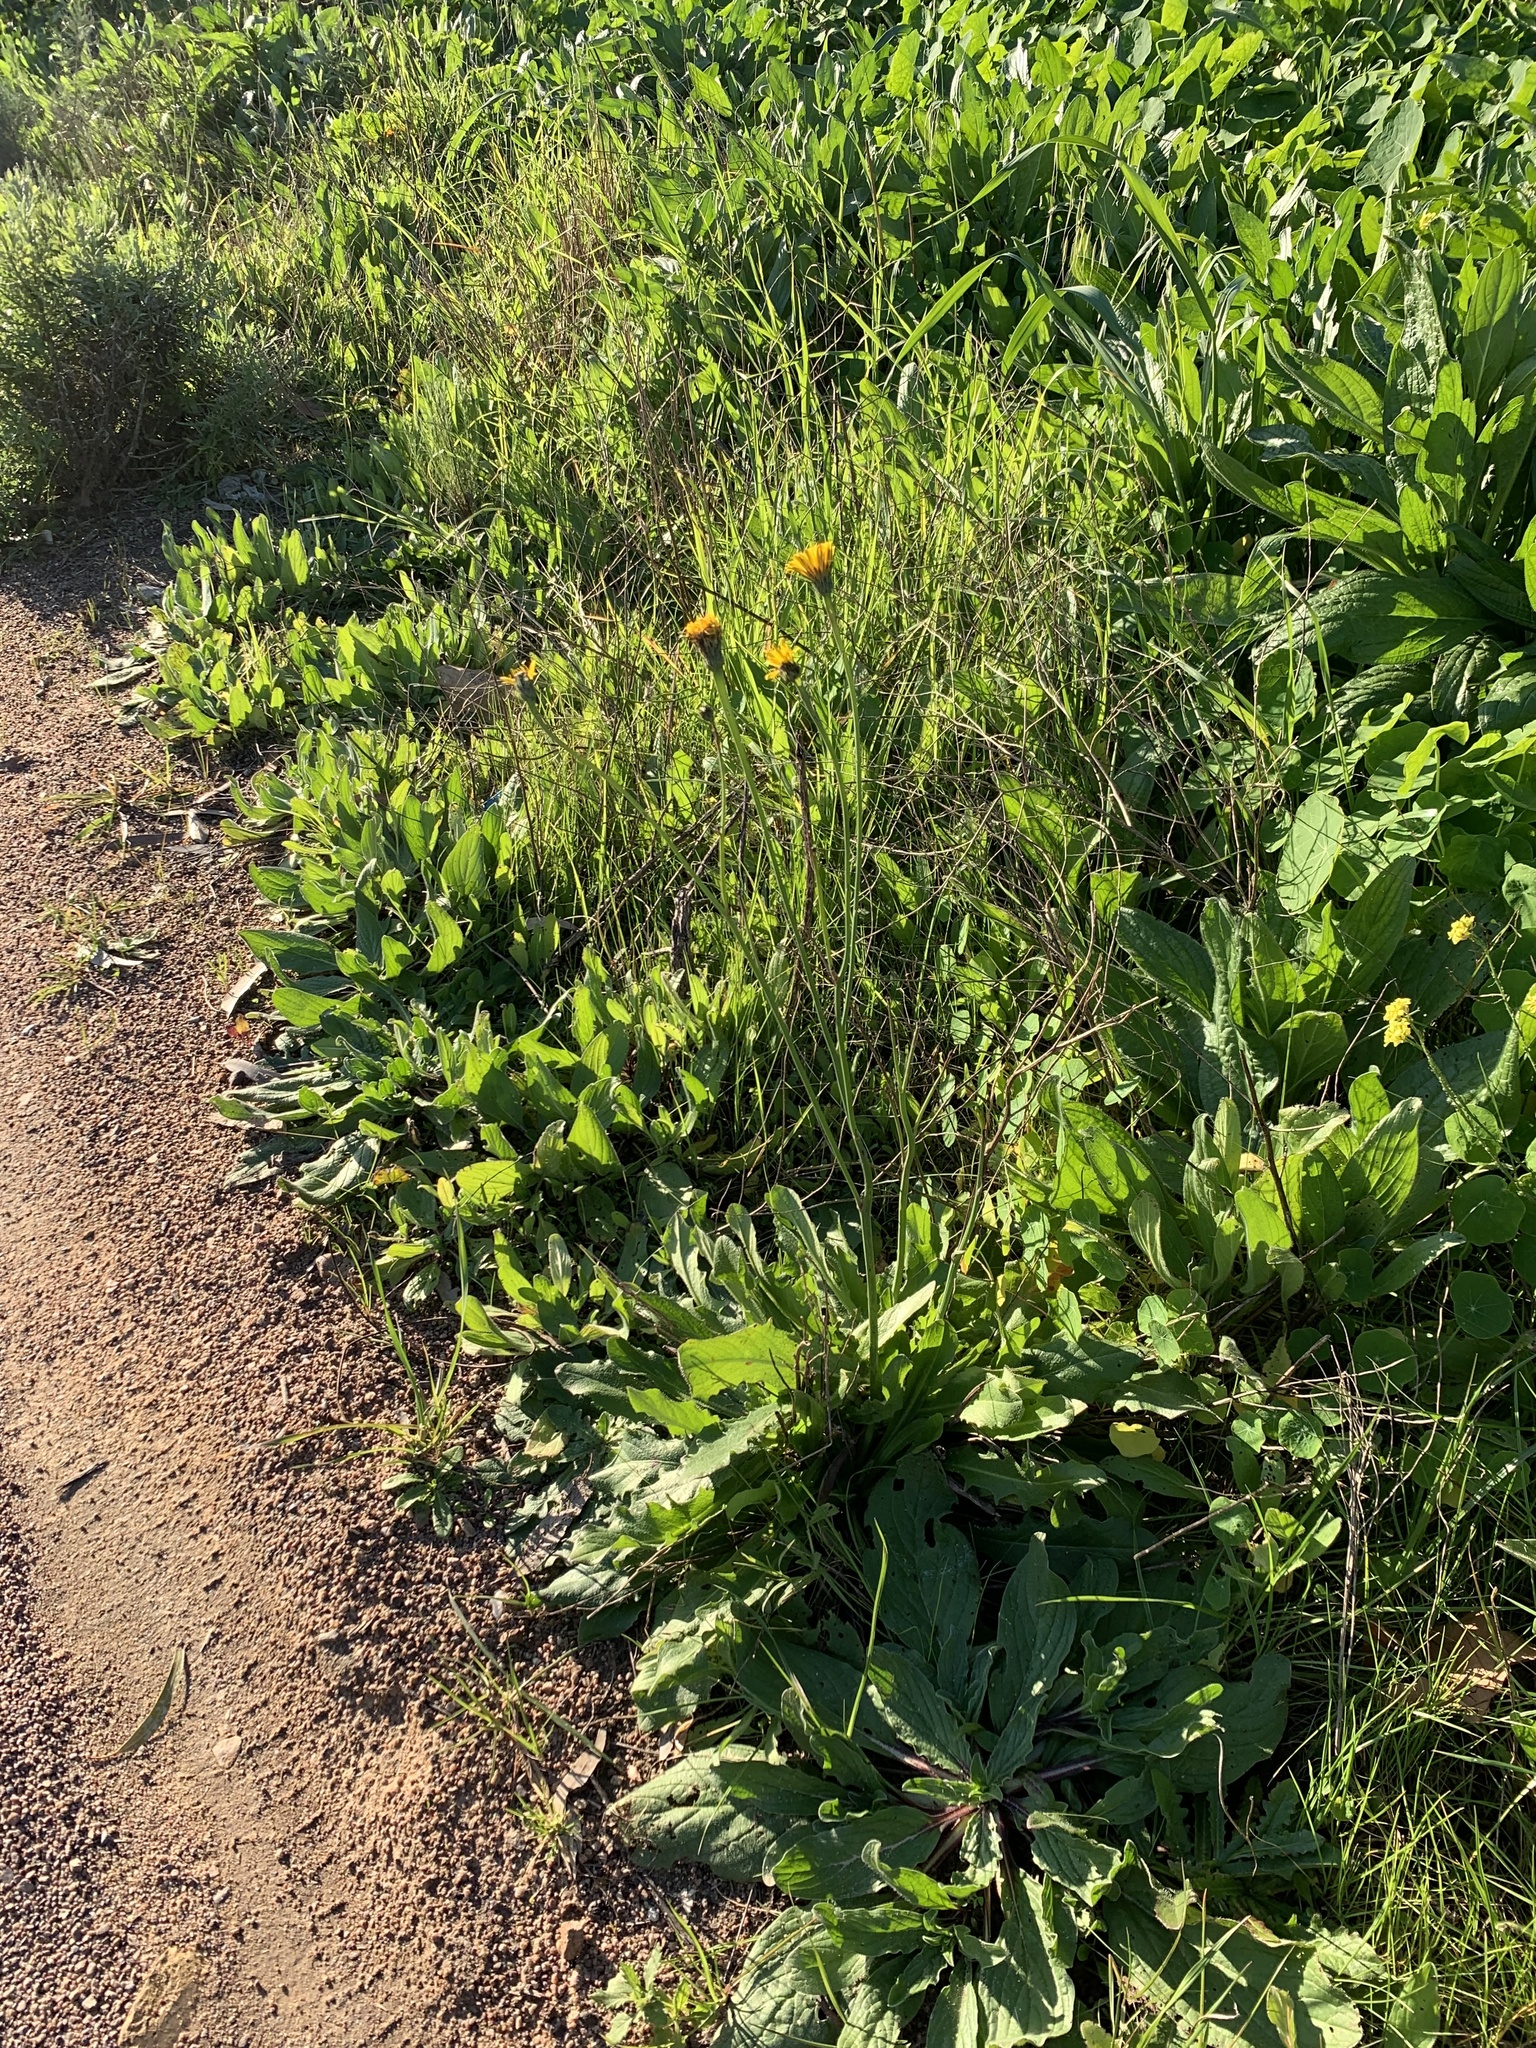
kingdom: Plantae
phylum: Tracheophyta
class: Magnoliopsida
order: Asterales
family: Asteraceae
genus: Hypochaeris
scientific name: Hypochaeris radicata
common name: Flatweed
